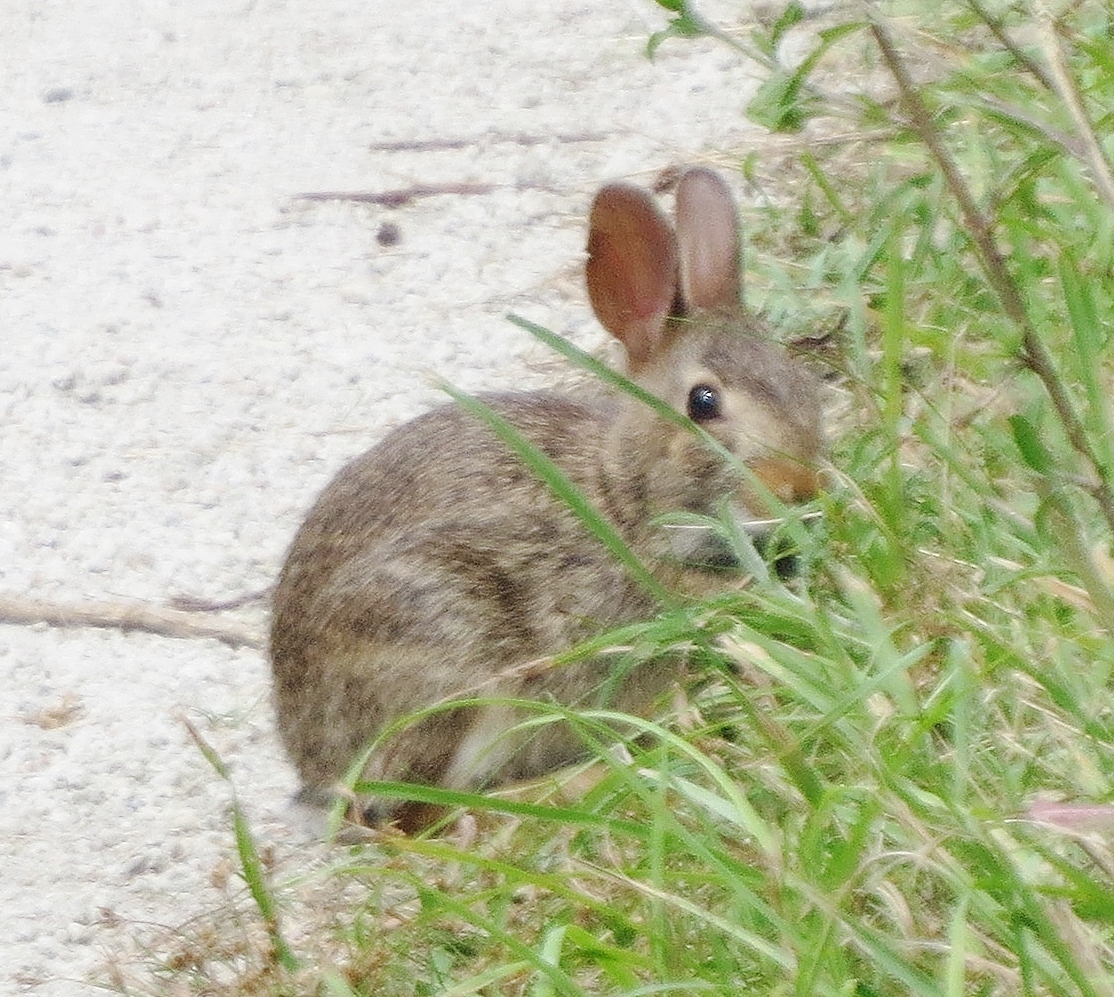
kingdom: Animalia
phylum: Chordata
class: Mammalia
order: Lagomorpha
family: Leporidae
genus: Sylvilagus
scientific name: Sylvilagus floridanus
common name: Eastern cottontail
